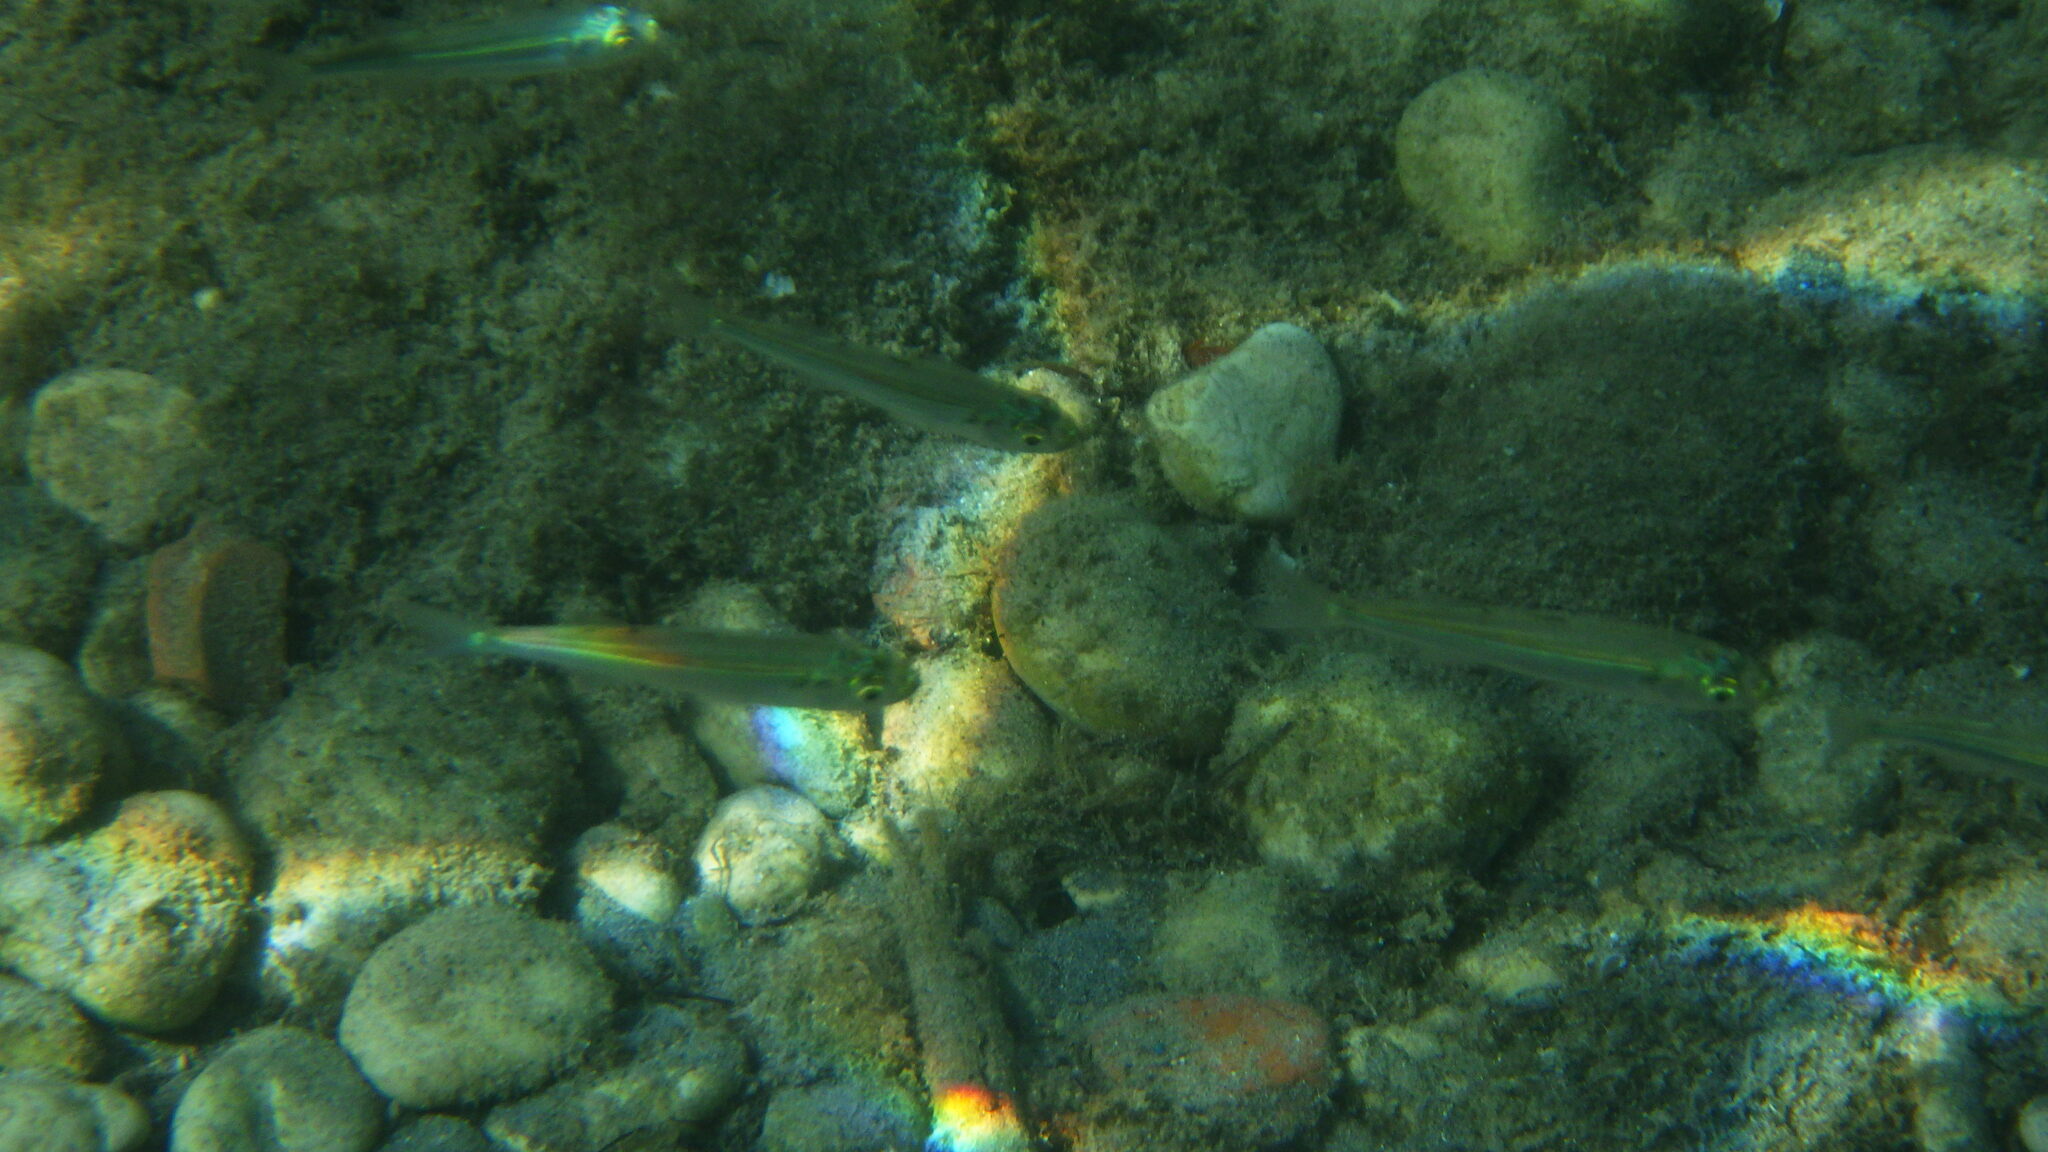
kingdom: Animalia
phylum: Chordata
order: Atheriniformes
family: Atherinidae
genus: Atherina
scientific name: Atherina boyeri
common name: Big-scale sand smelt
